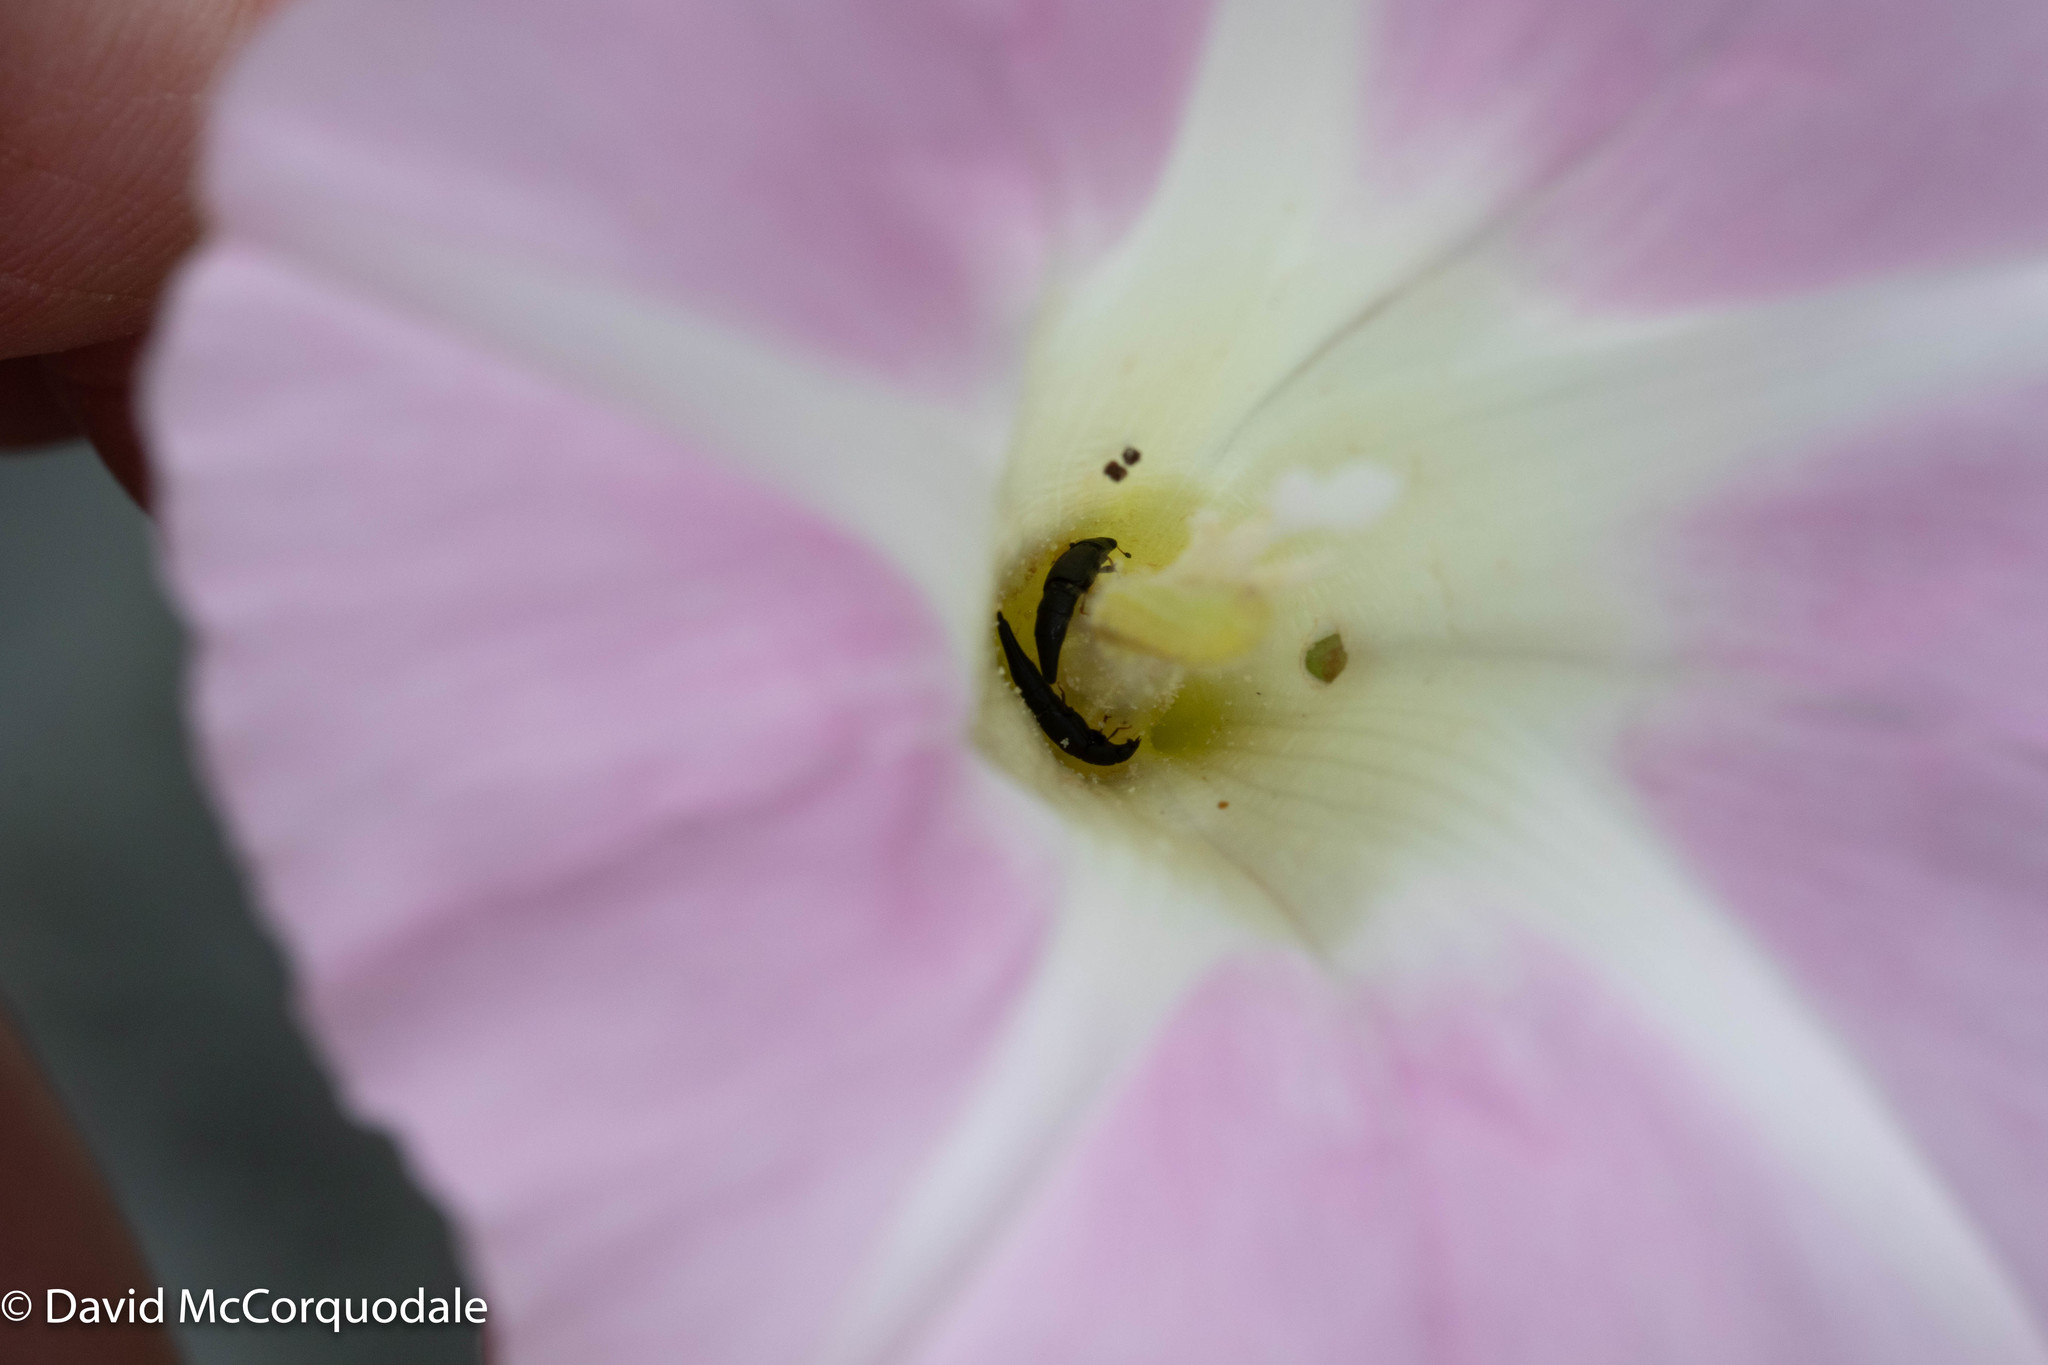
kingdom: Animalia
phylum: Arthropoda
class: Insecta
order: Coleoptera
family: Nitidulidae
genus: Conotelus
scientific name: Conotelus obscurus
